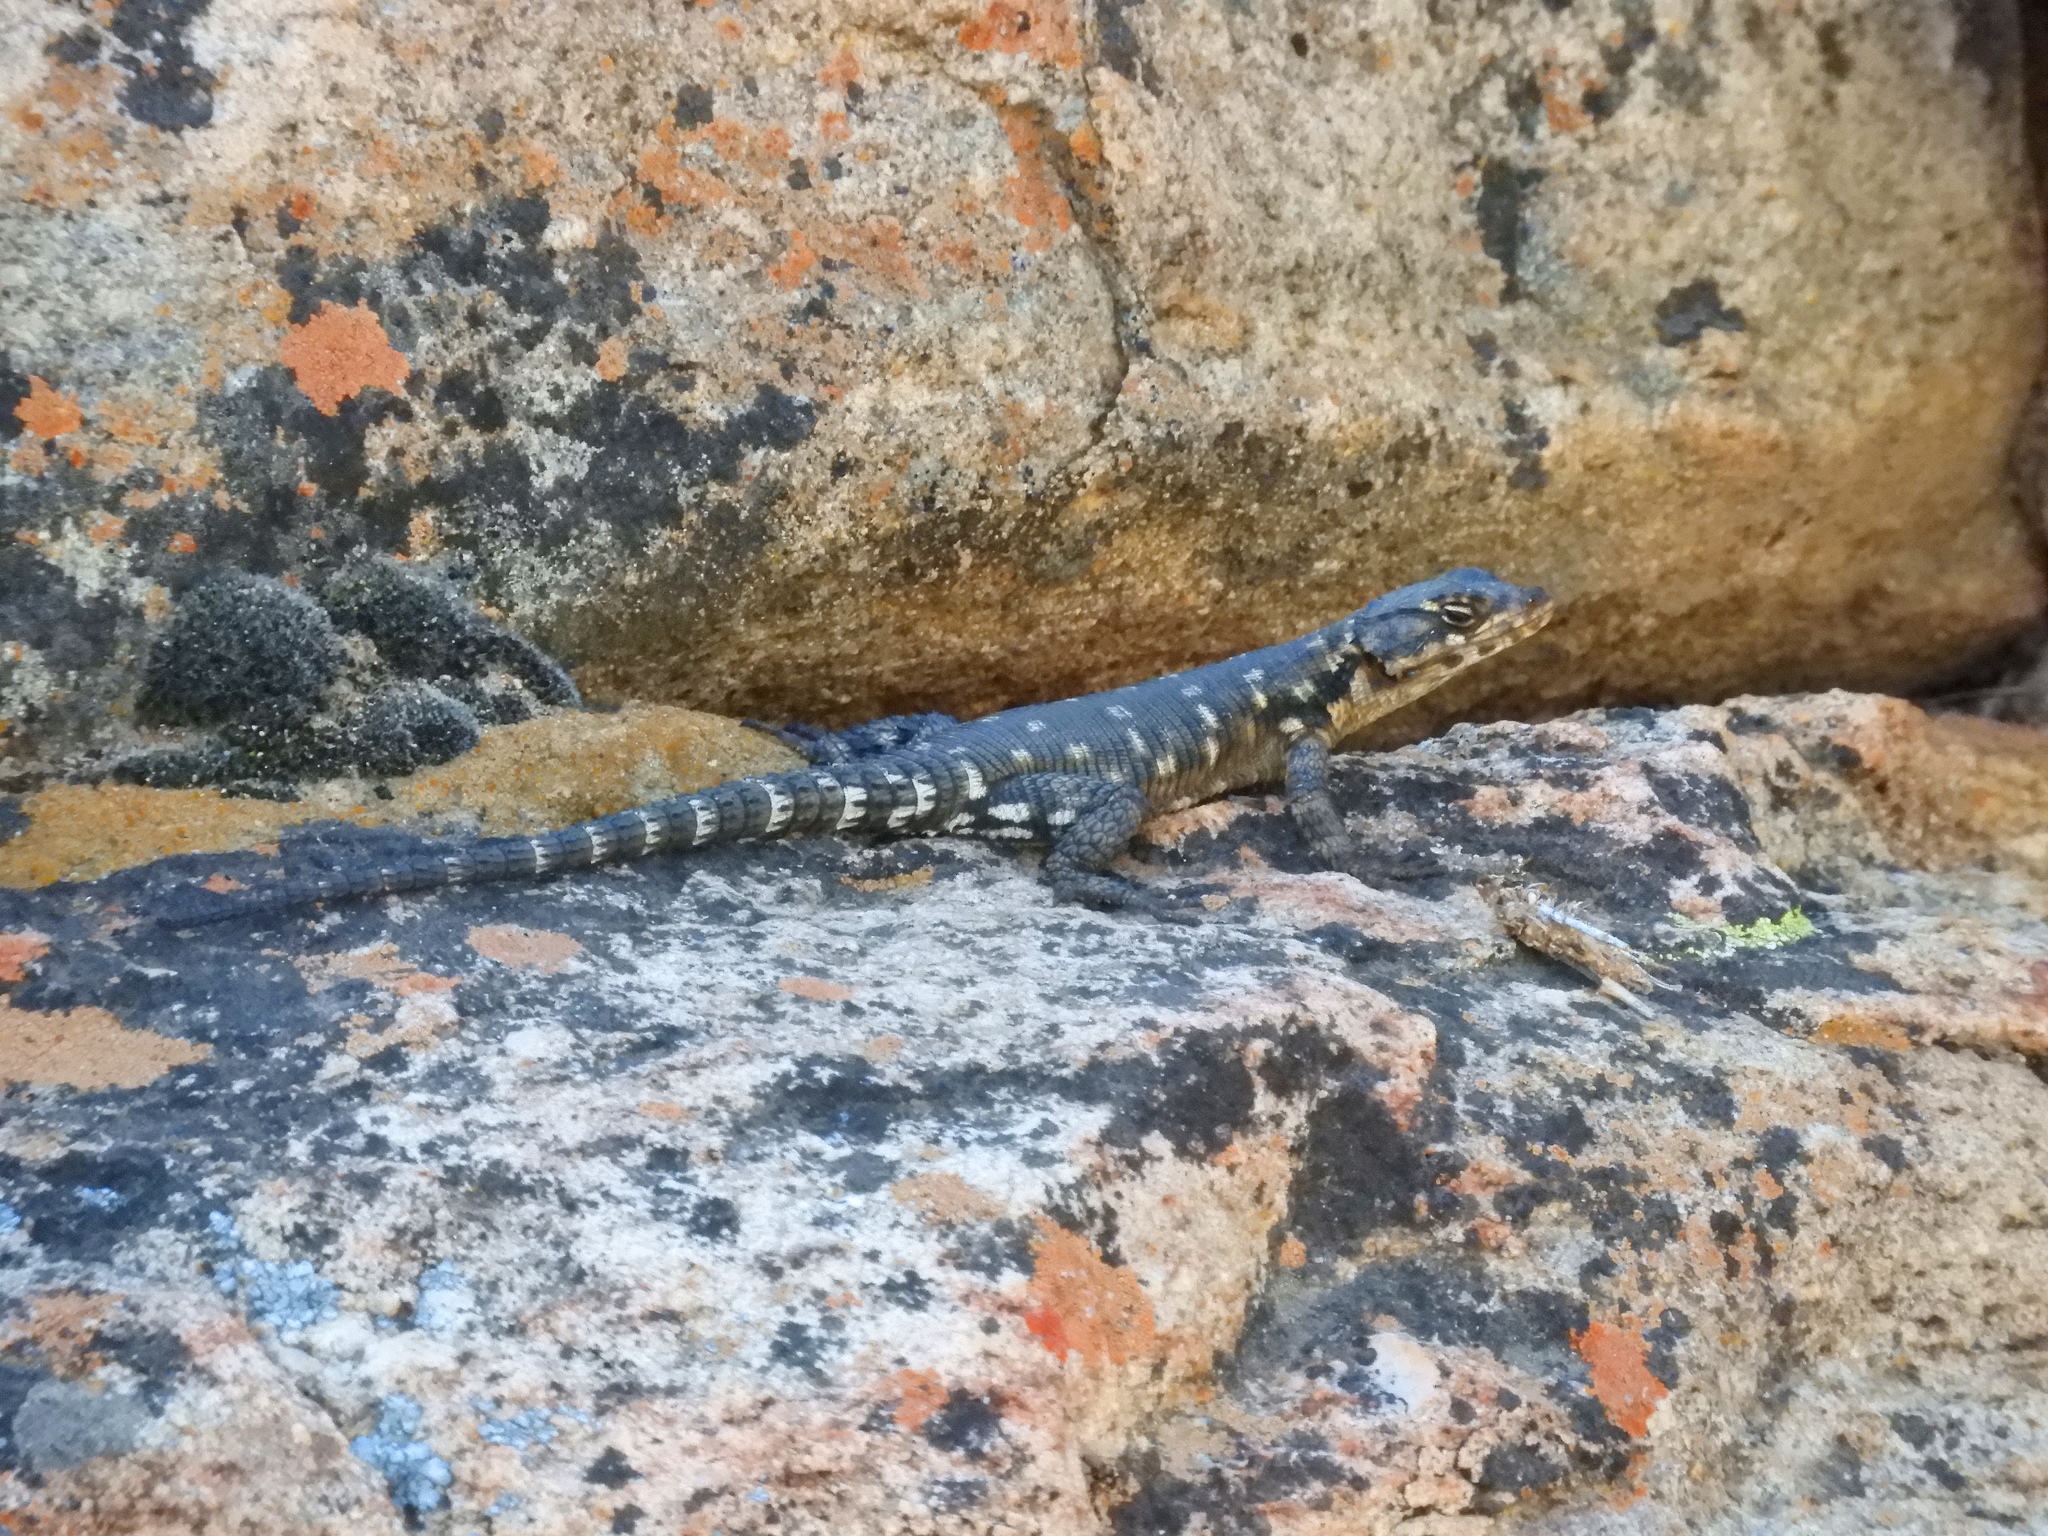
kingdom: Animalia
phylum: Chordata
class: Squamata
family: Cordylidae
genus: Karusasaurus
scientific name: Karusasaurus polyzonus
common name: Karoo girdled lizard
